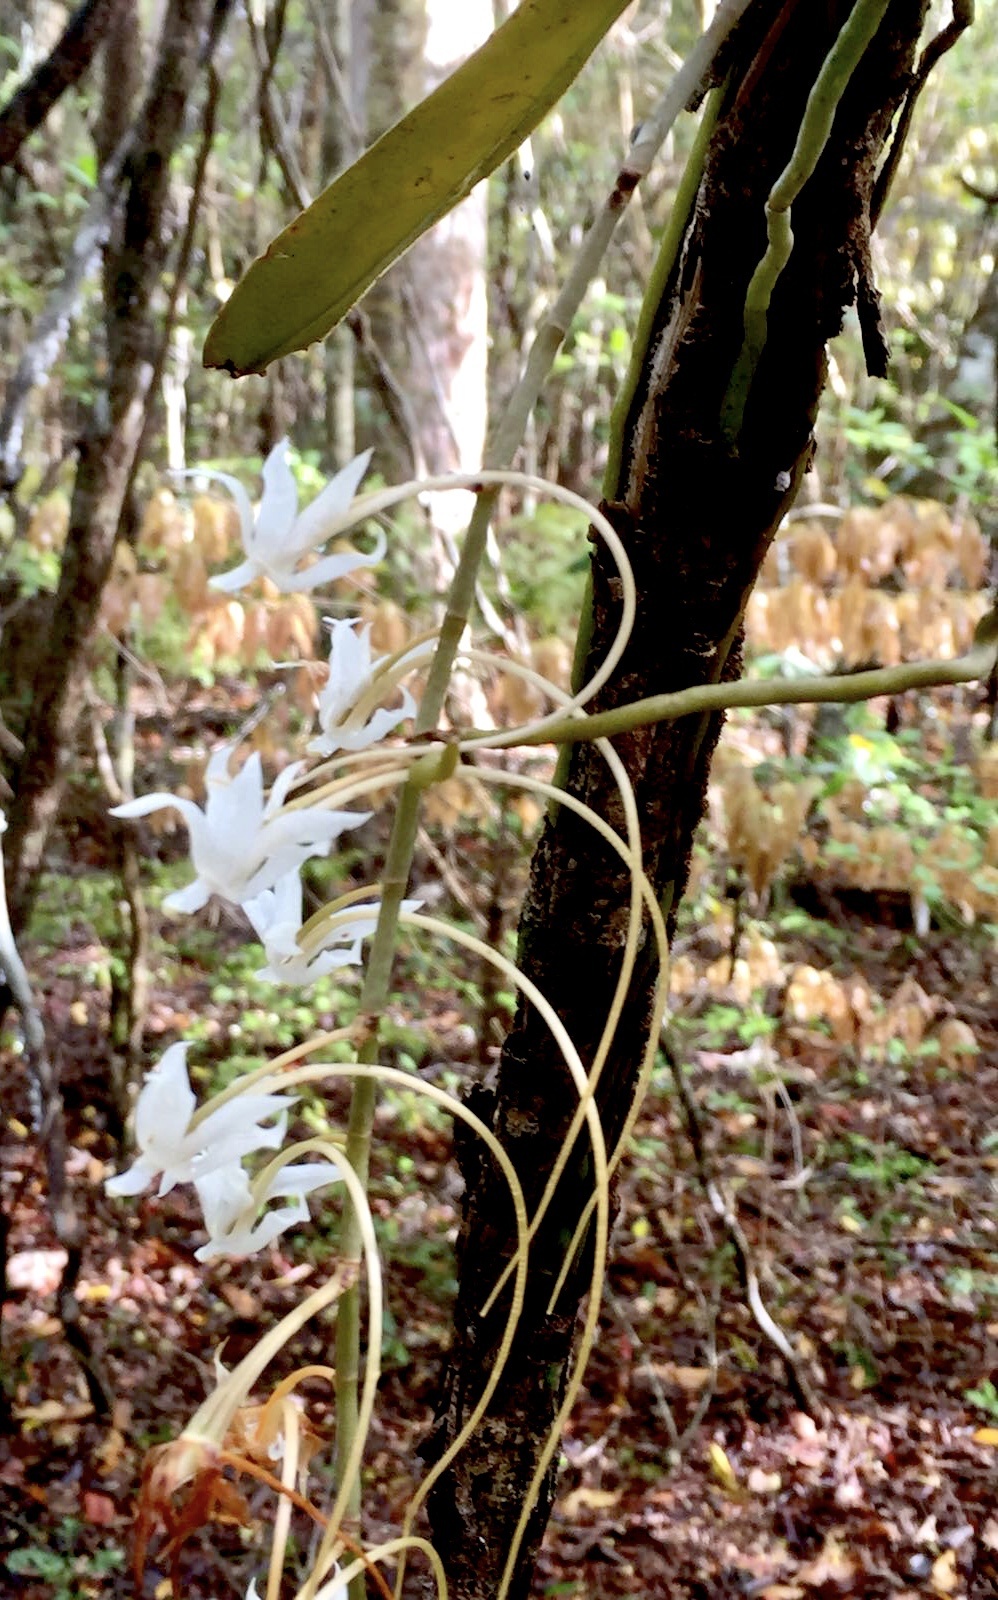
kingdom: Plantae
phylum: Tracheophyta
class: Liliopsida
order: Asparagales
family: Orchidaceae
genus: Aerangis
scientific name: Aerangis decaryana
